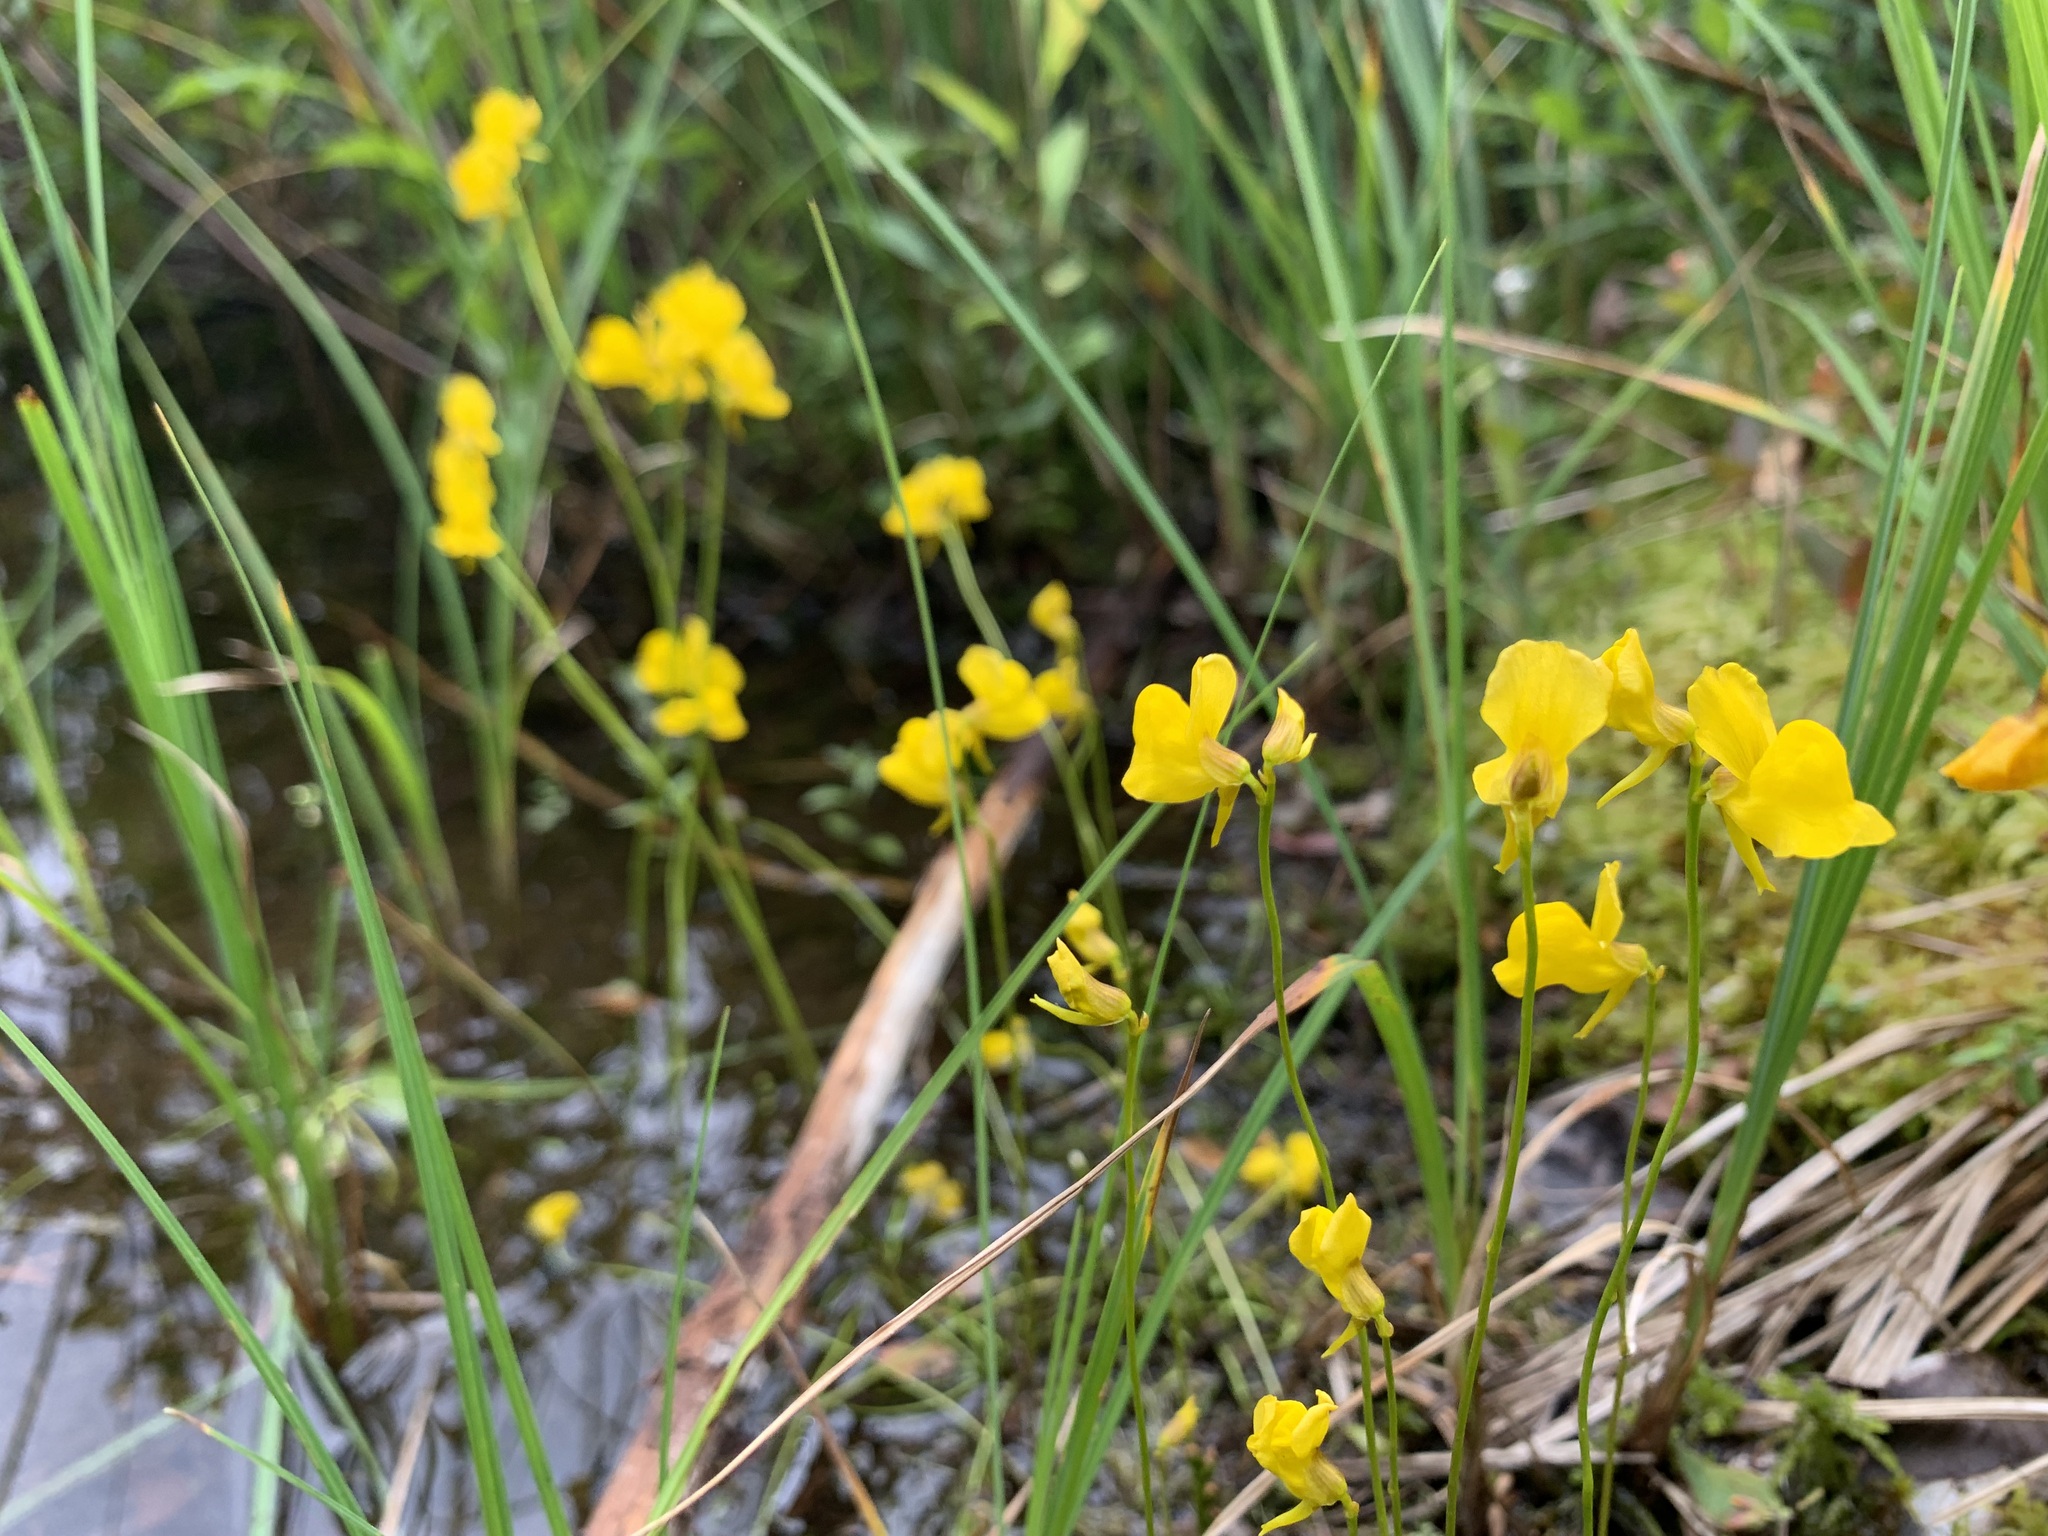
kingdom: Plantae
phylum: Tracheophyta
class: Magnoliopsida
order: Lamiales
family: Lentibulariaceae
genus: Utricularia
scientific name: Utricularia cornuta
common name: Horned bladderwort
